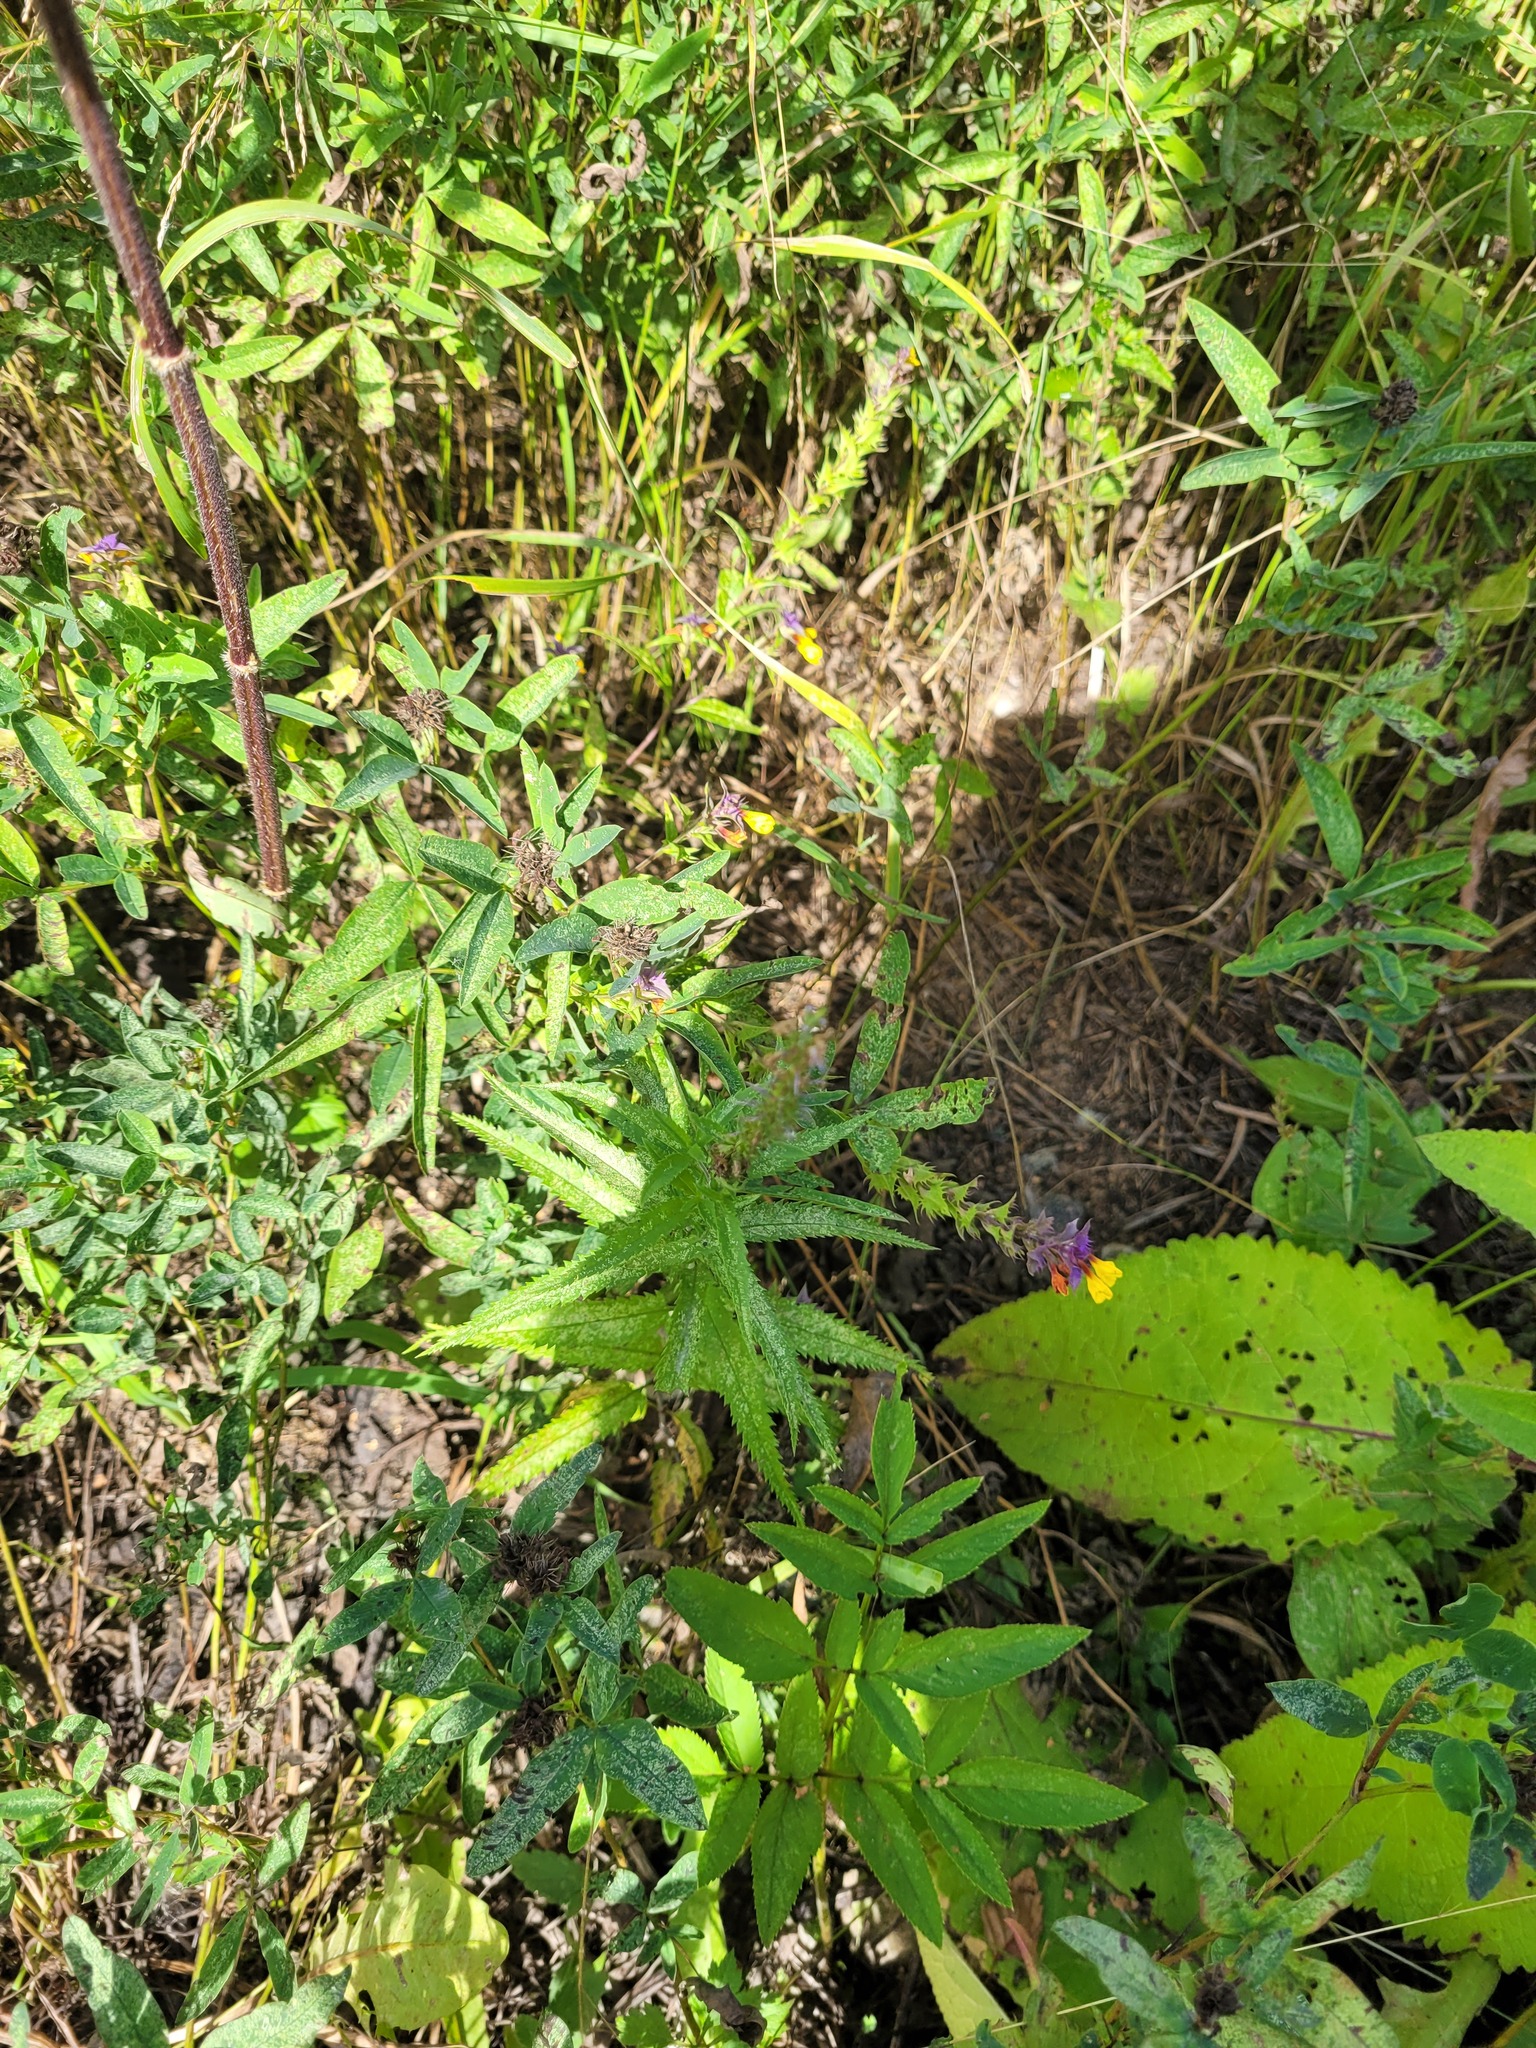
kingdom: Plantae
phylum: Tracheophyta
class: Magnoliopsida
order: Lamiales
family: Plantaginaceae
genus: Veronica
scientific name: Veronica longifolia
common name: Garden speedwell
